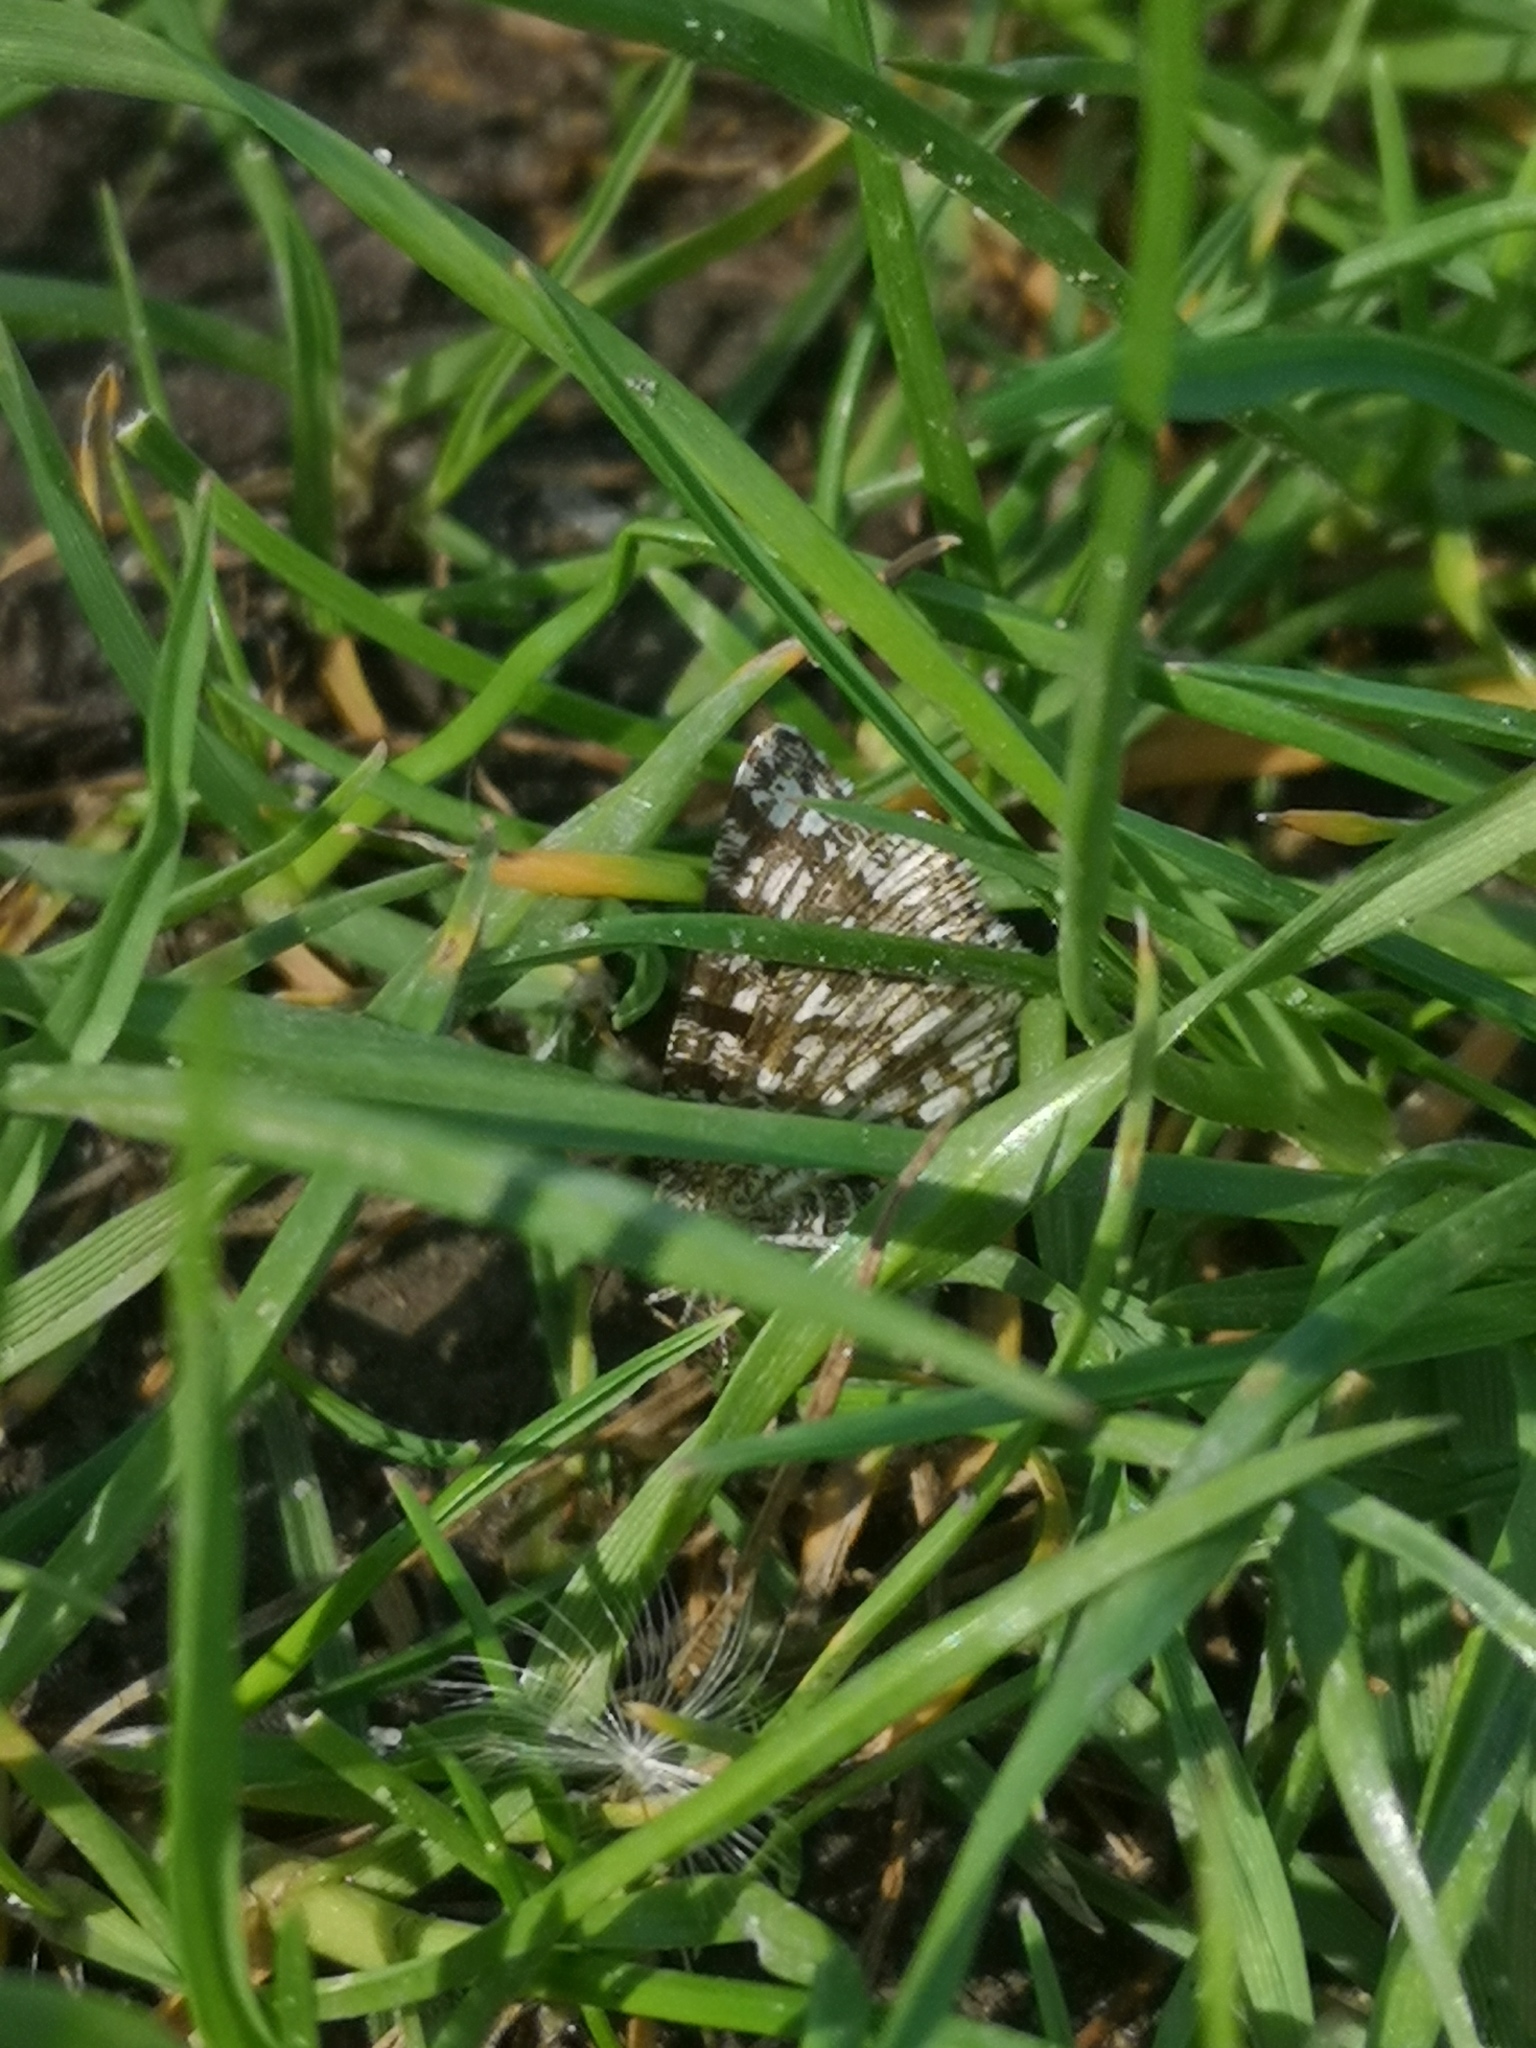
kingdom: Animalia
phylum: Arthropoda
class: Insecta
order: Lepidoptera
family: Geometridae
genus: Chiasmia
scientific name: Chiasmia clathrata
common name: Latticed heath
